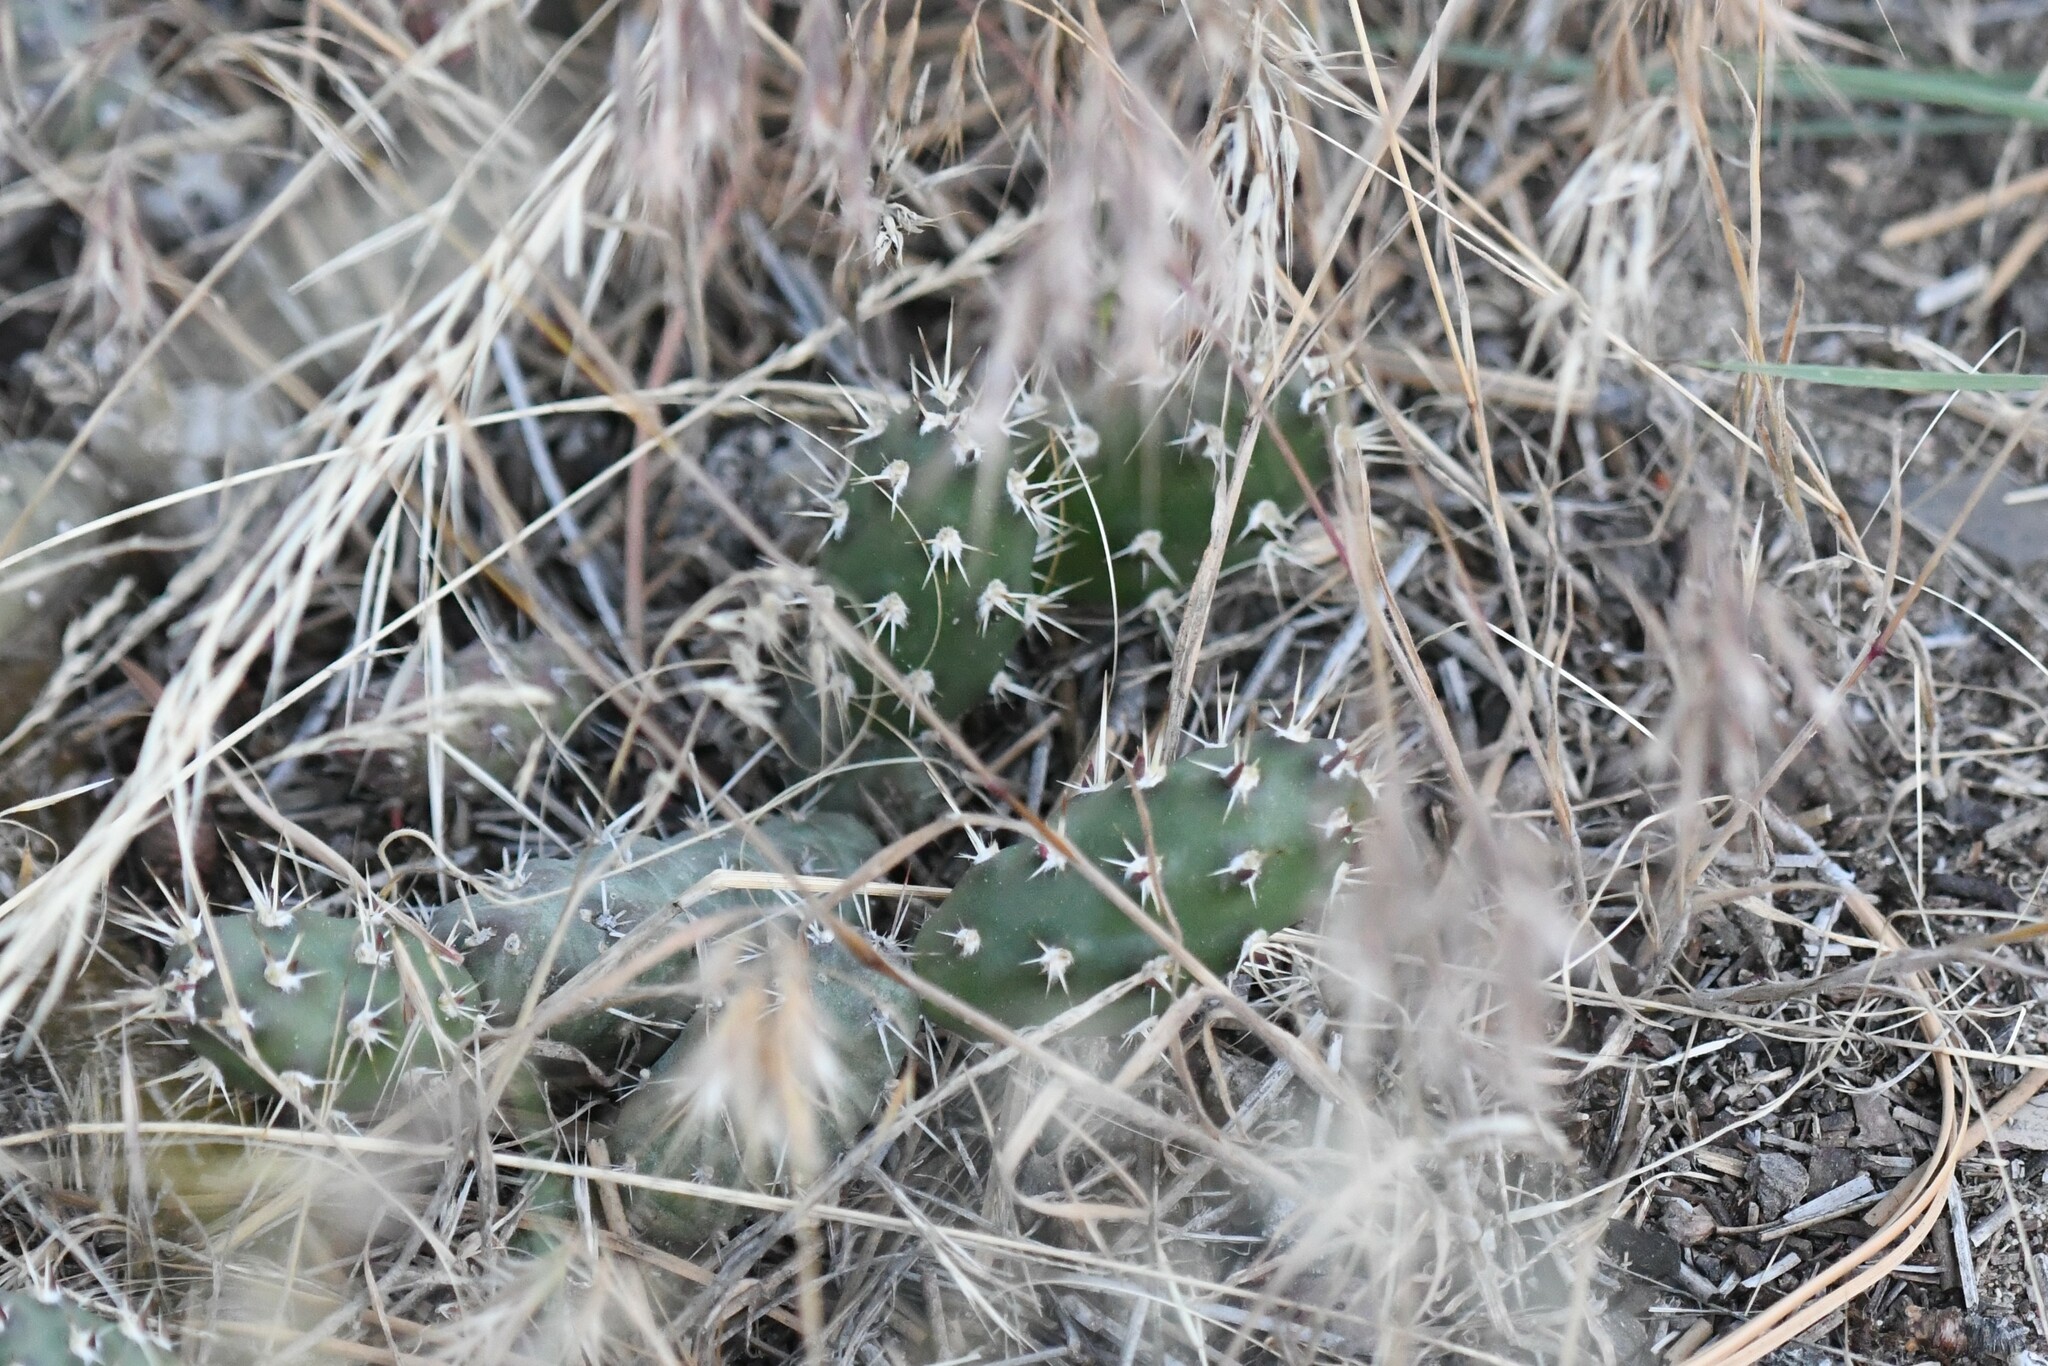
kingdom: Plantae
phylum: Tracheophyta
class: Magnoliopsida
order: Caryophyllales
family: Cactaceae
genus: Opuntia
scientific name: Opuntia fragilis
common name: Brittle cactus
